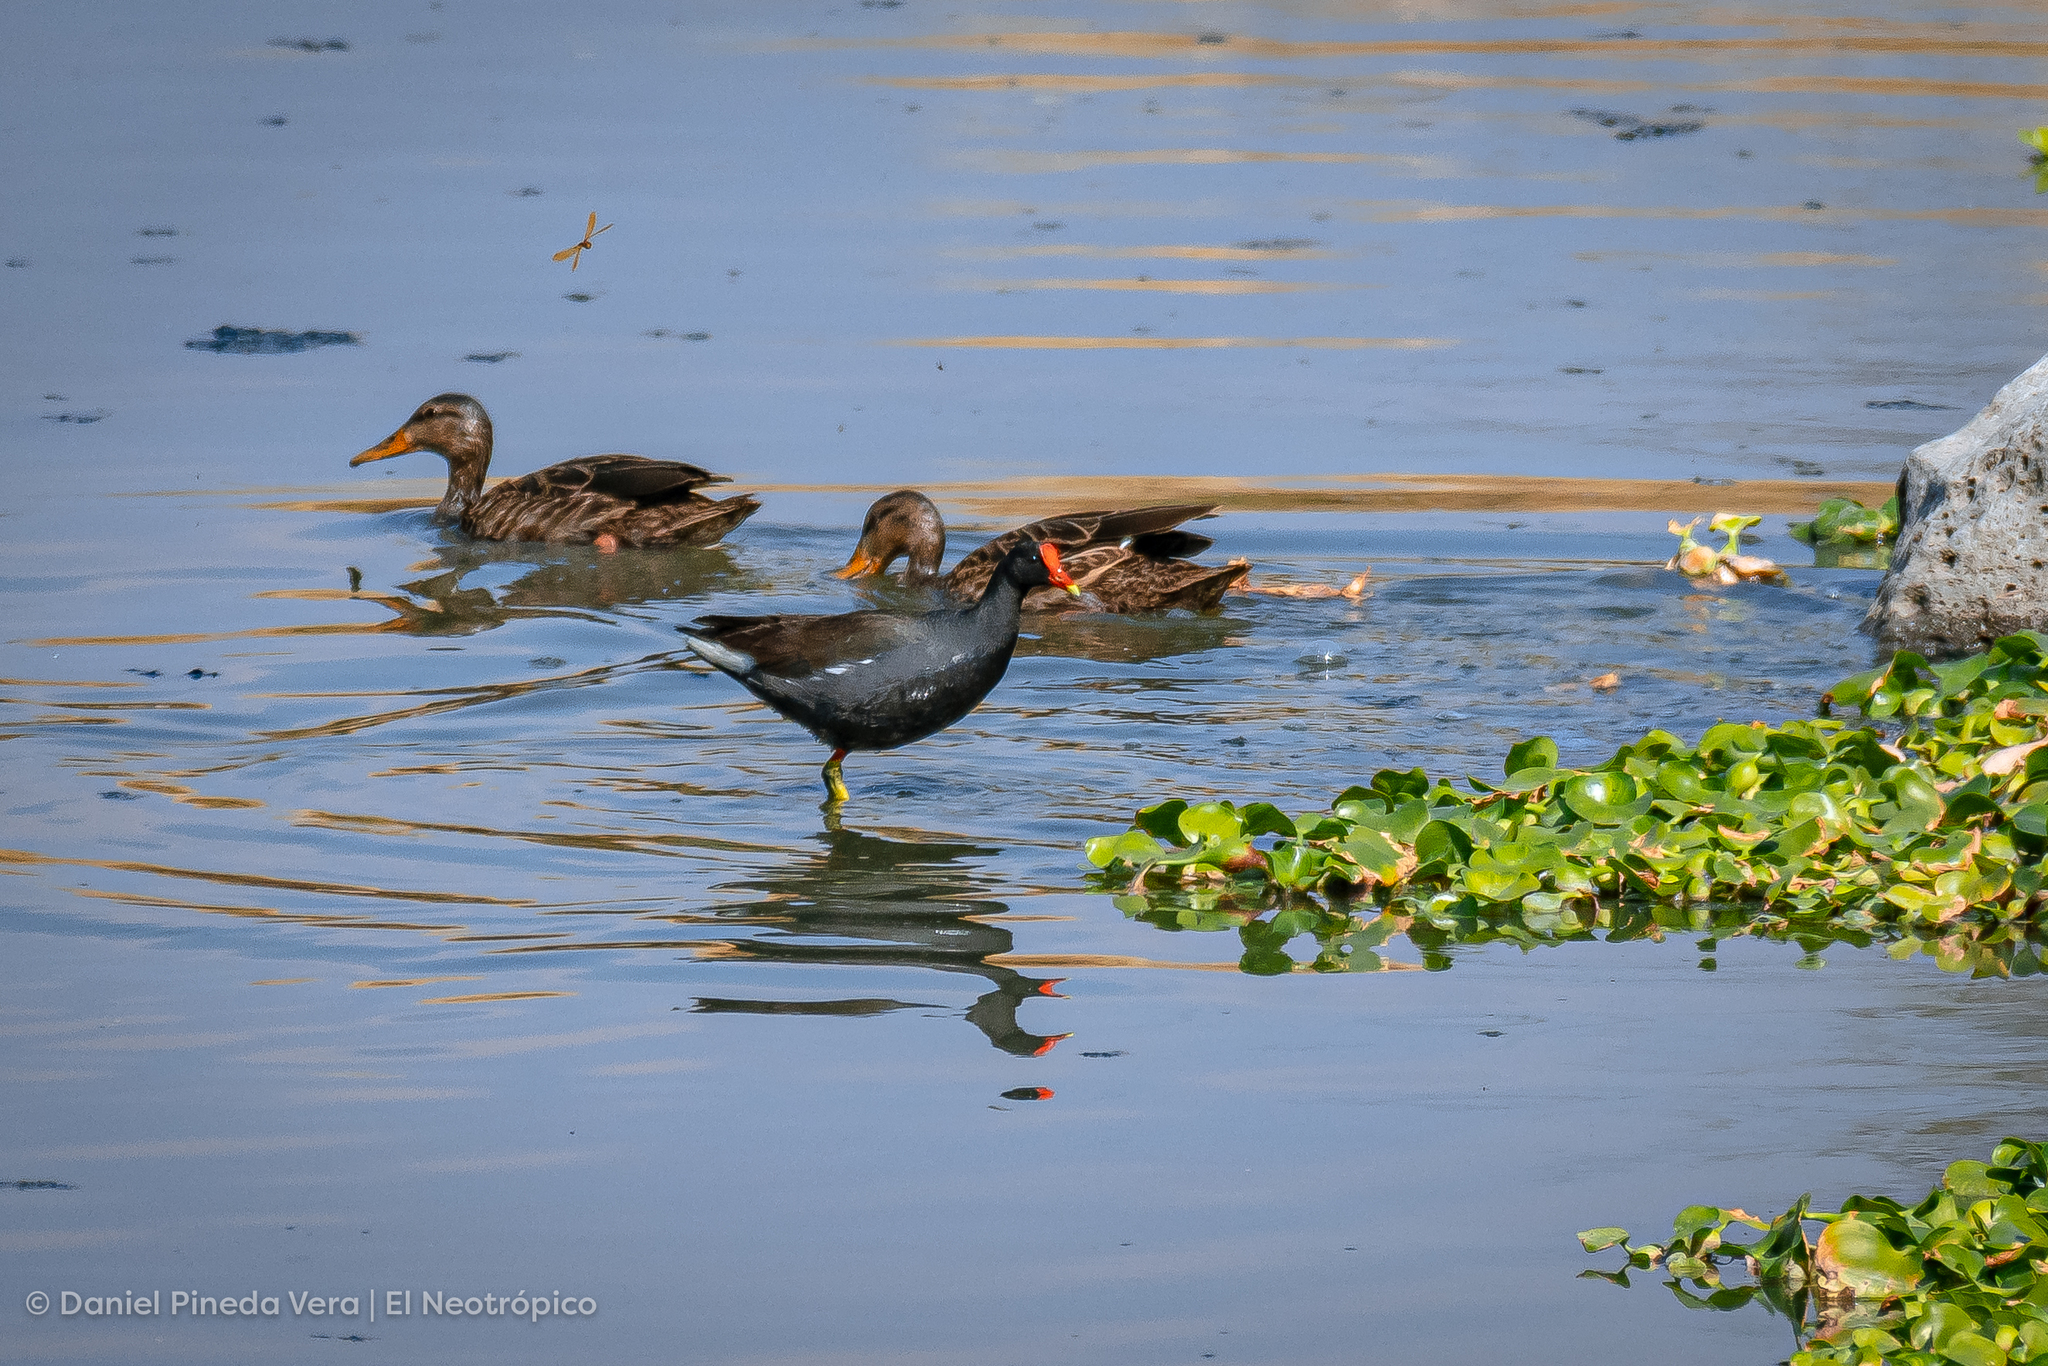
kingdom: Animalia
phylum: Chordata
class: Aves
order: Gruiformes
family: Rallidae
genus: Gallinula
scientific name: Gallinula chloropus
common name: Common moorhen
